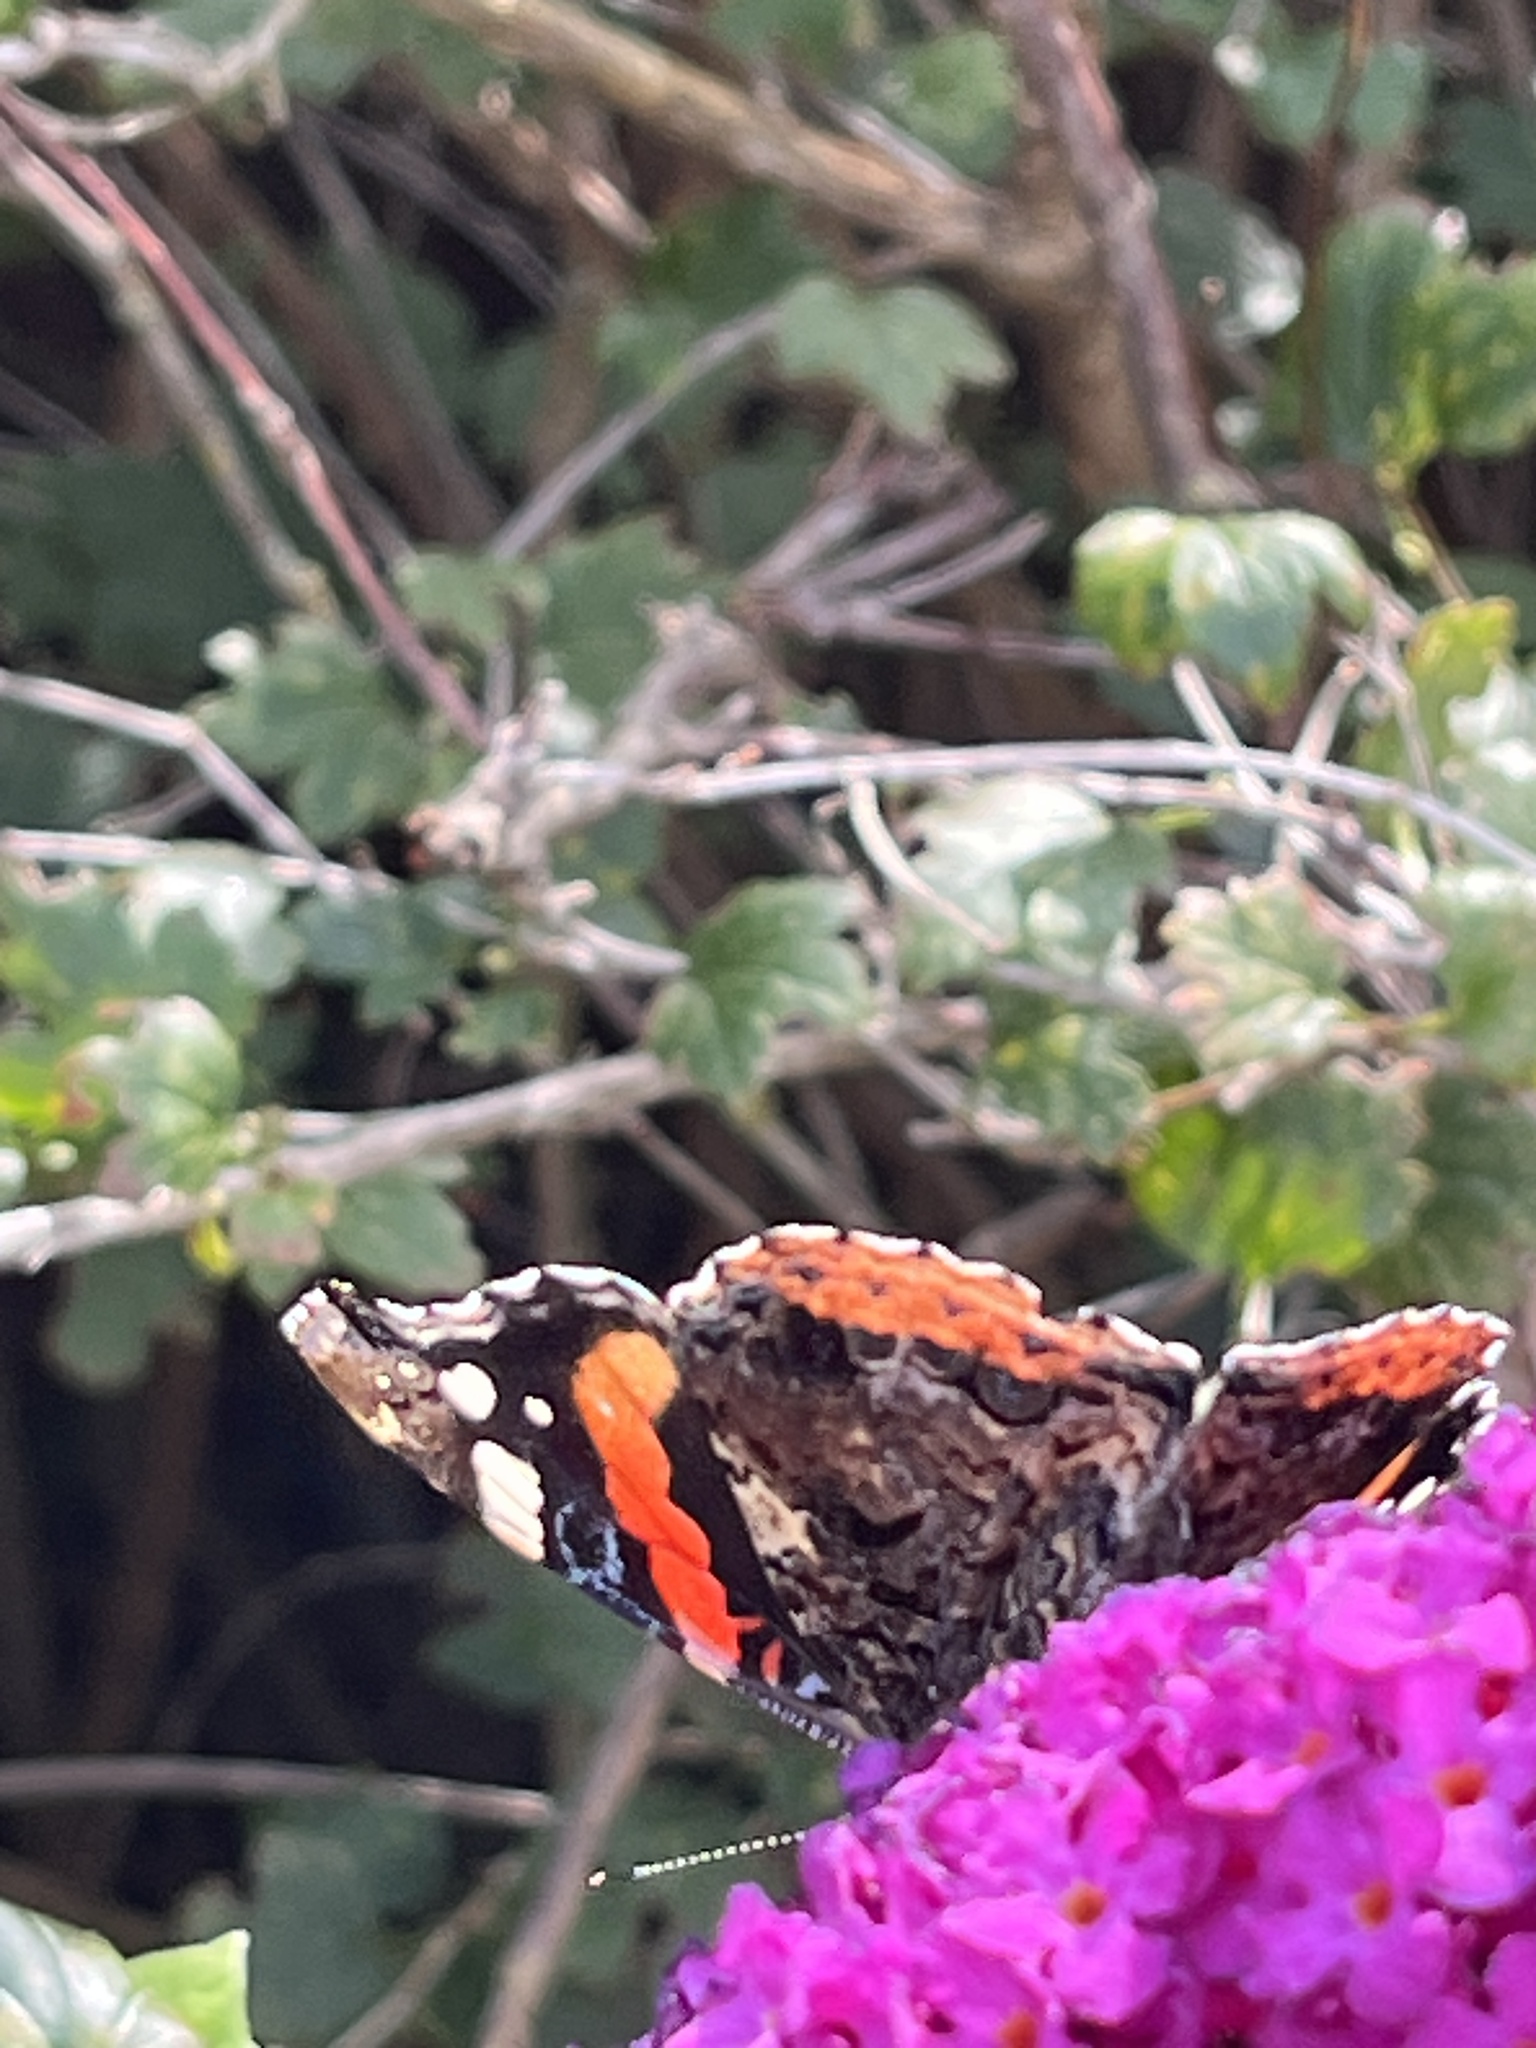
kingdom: Animalia
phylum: Arthropoda
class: Insecta
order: Lepidoptera
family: Nymphalidae
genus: Vanessa
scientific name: Vanessa atalanta
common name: Red admiral
